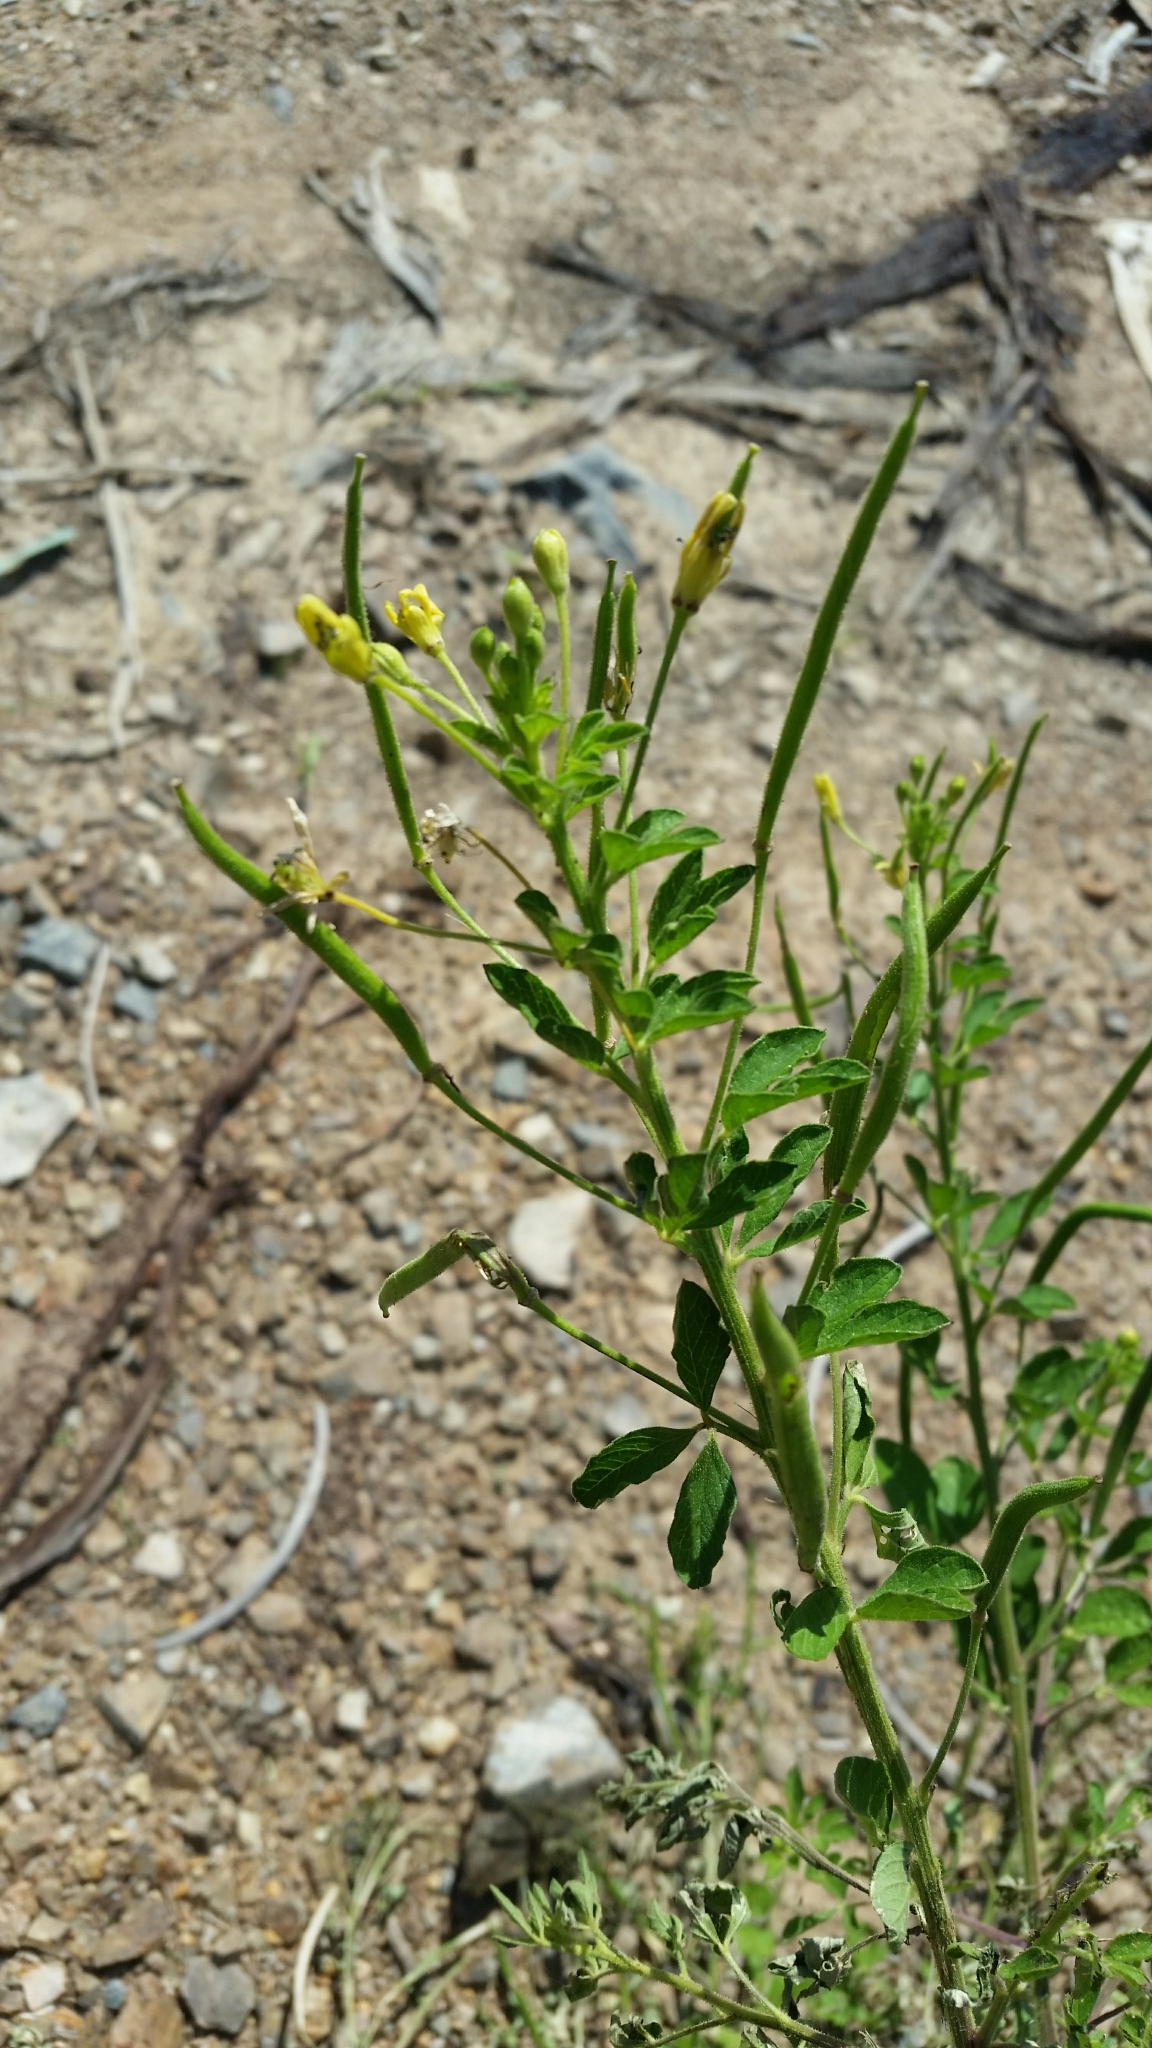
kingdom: Plantae
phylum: Tracheophyta
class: Magnoliopsida
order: Brassicales
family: Cleomaceae
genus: Arivela
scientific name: Arivela viscosa
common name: Asian spiderflower
